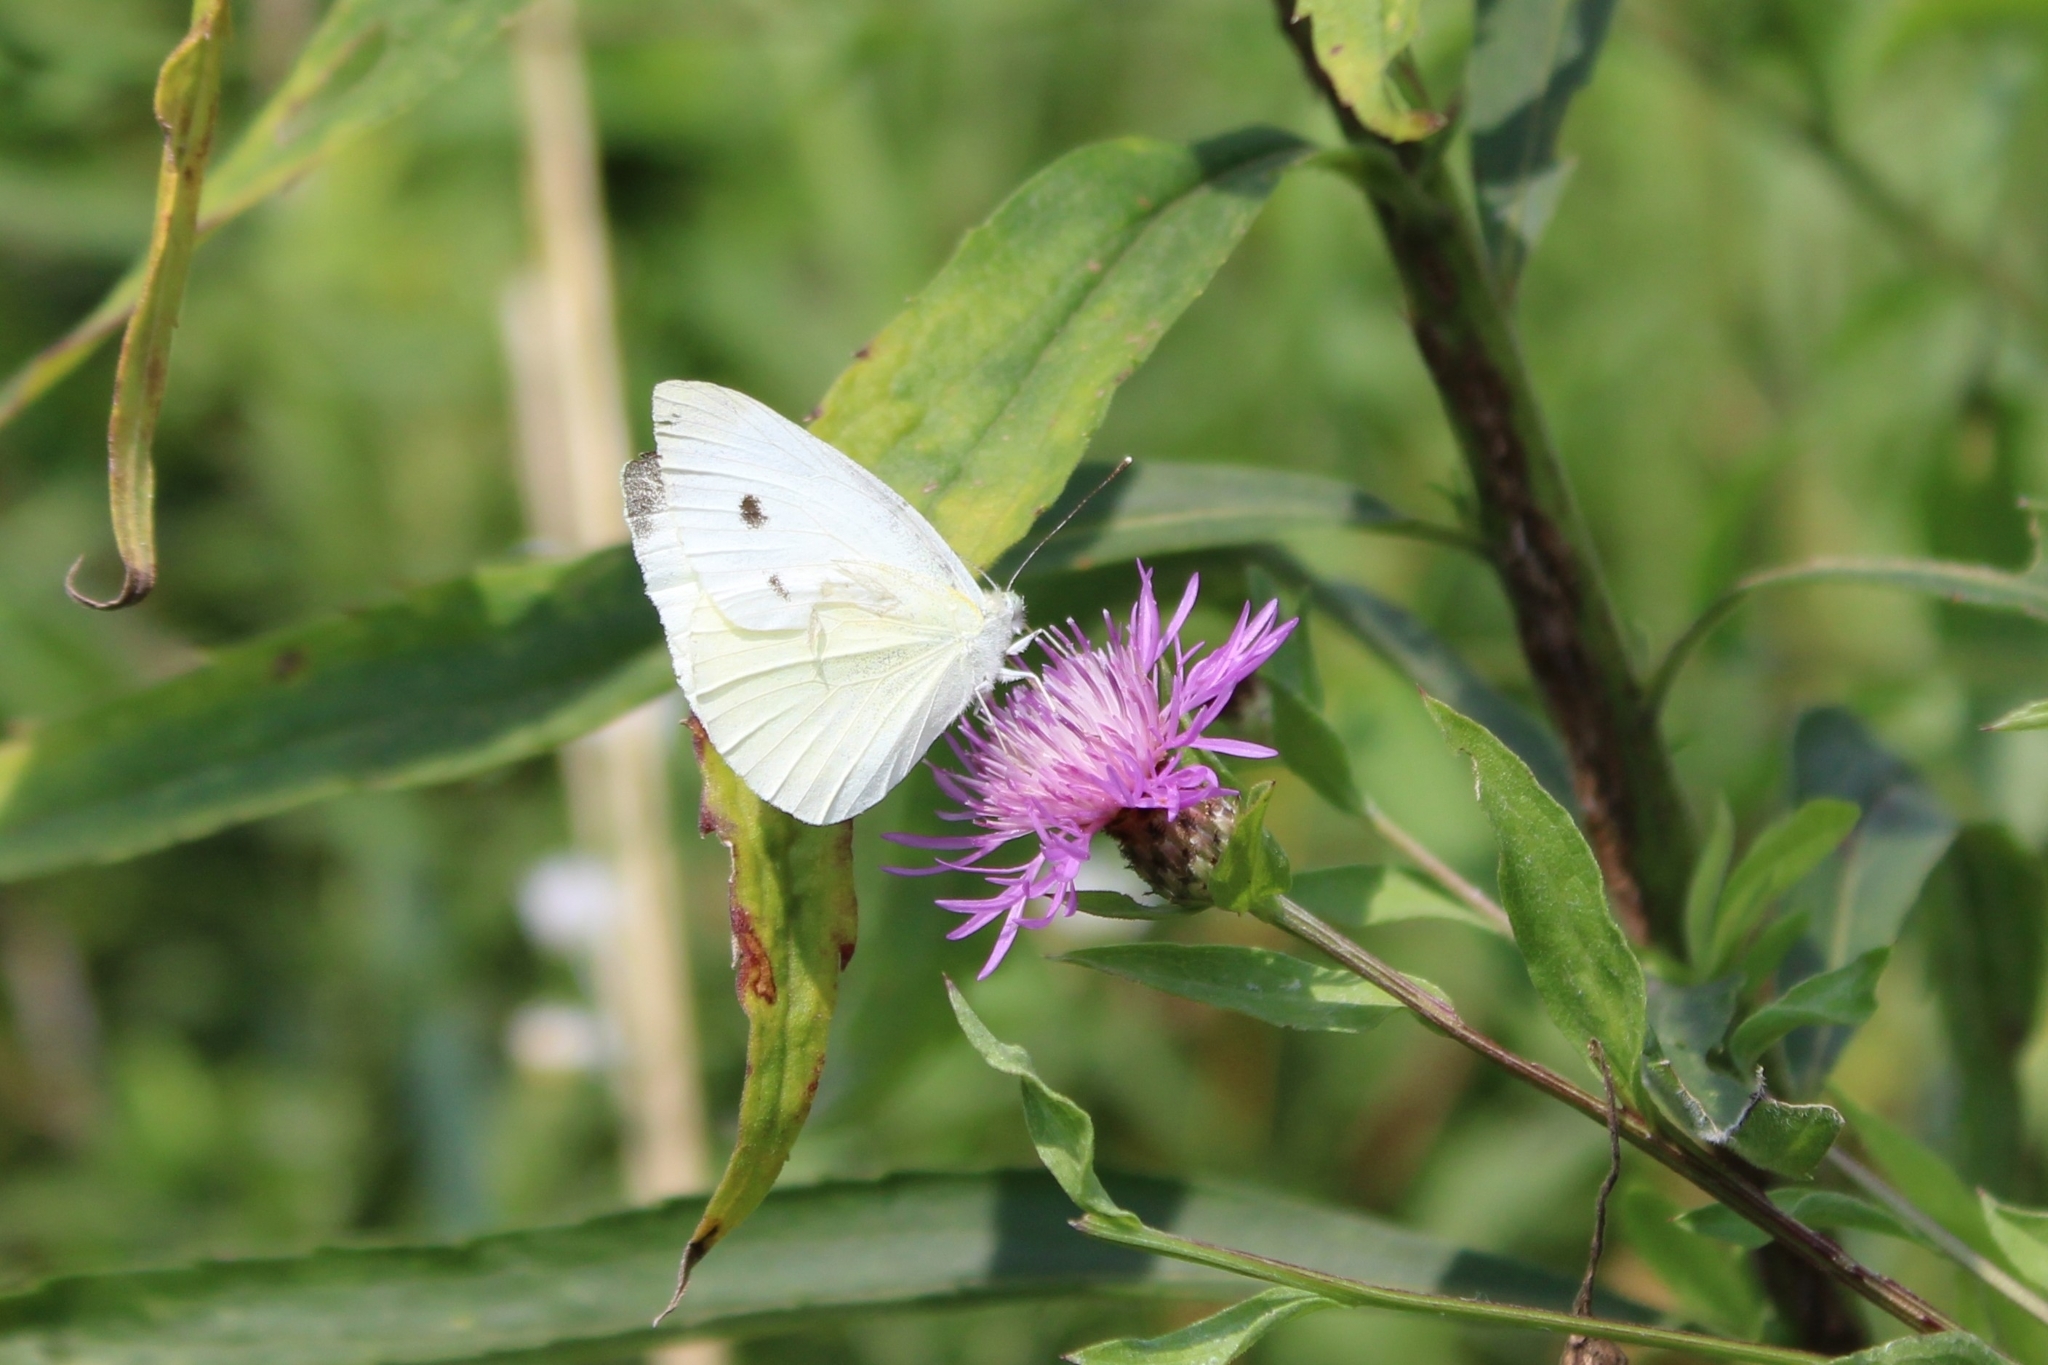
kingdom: Animalia
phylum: Arthropoda
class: Insecta
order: Lepidoptera
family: Pieridae
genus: Pieris
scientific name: Pieris rapae
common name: Small white
